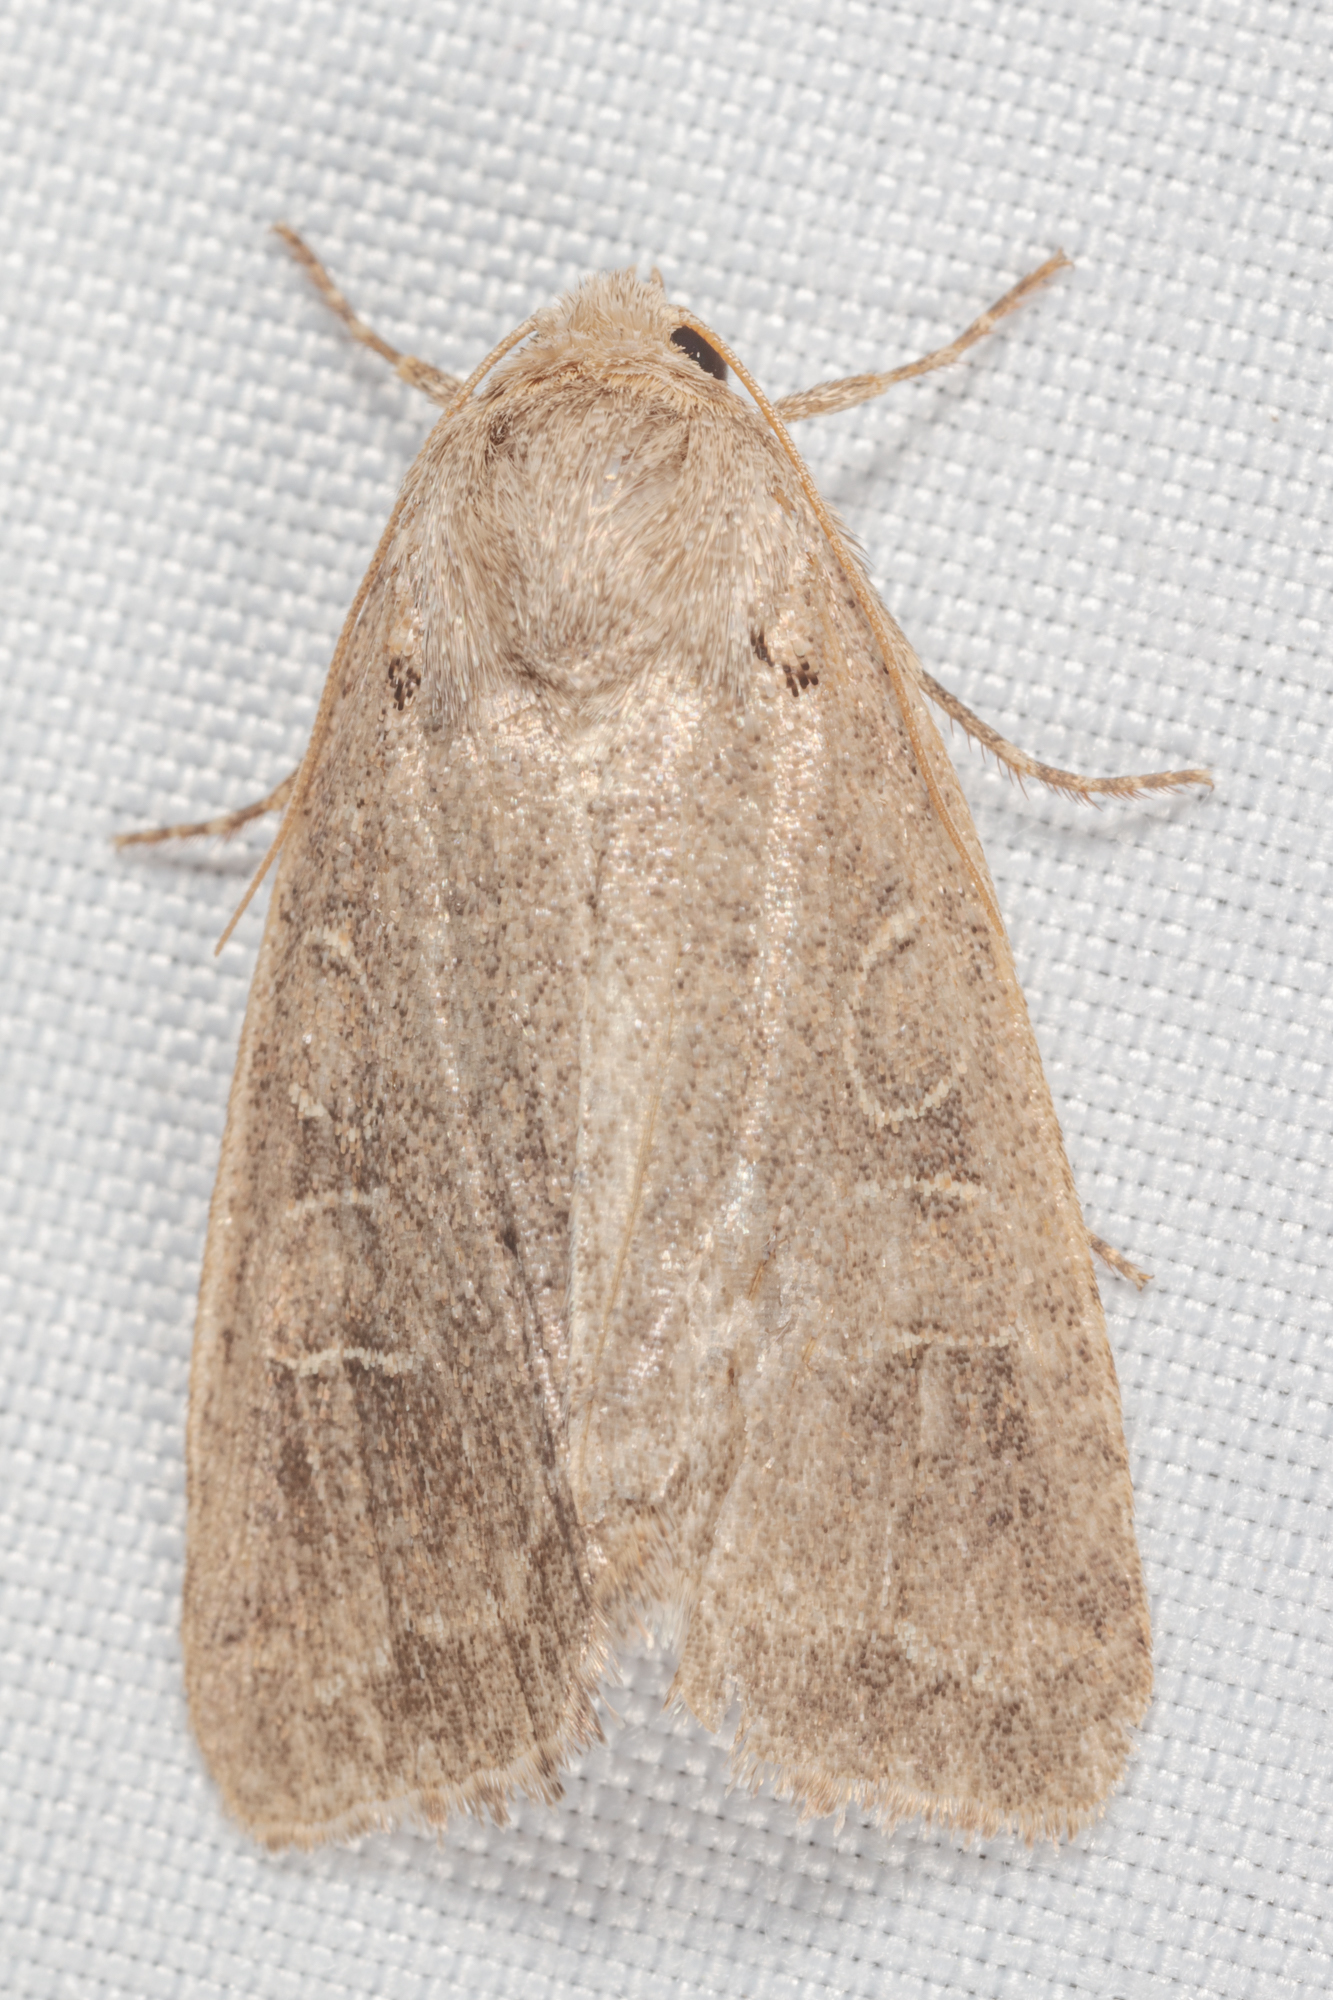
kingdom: Animalia
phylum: Arthropoda
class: Insecta
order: Lepidoptera
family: Noctuidae
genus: Kocakina
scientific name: Kocakina fidelis
